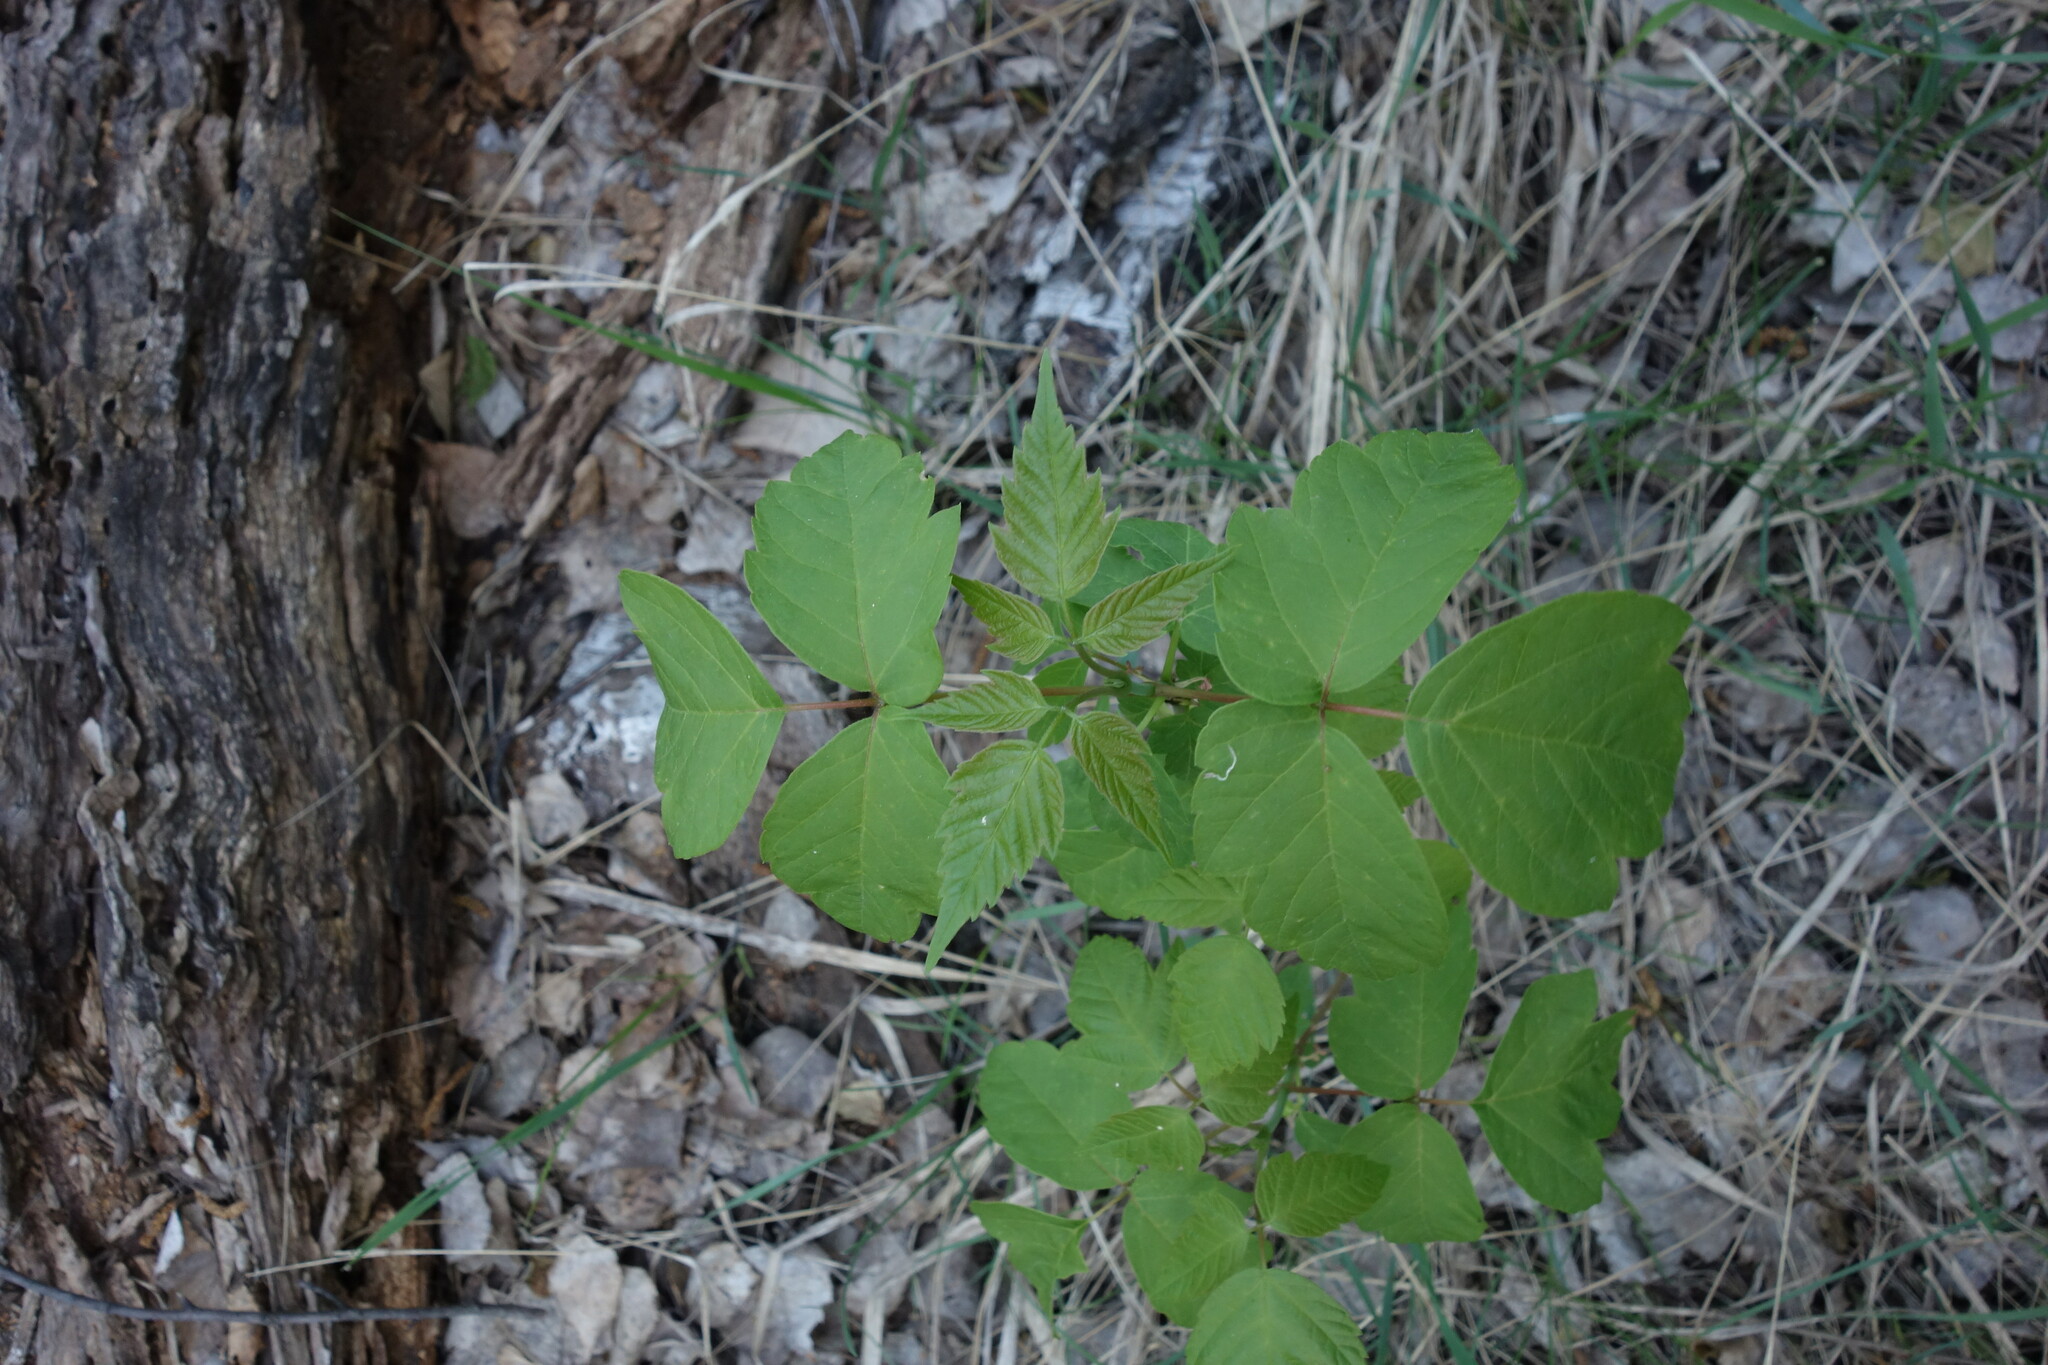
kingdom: Plantae
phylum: Tracheophyta
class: Magnoliopsida
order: Sapindales
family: Sapindaceae
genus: Acer
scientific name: Acer negundo
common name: Ashleaf maple
